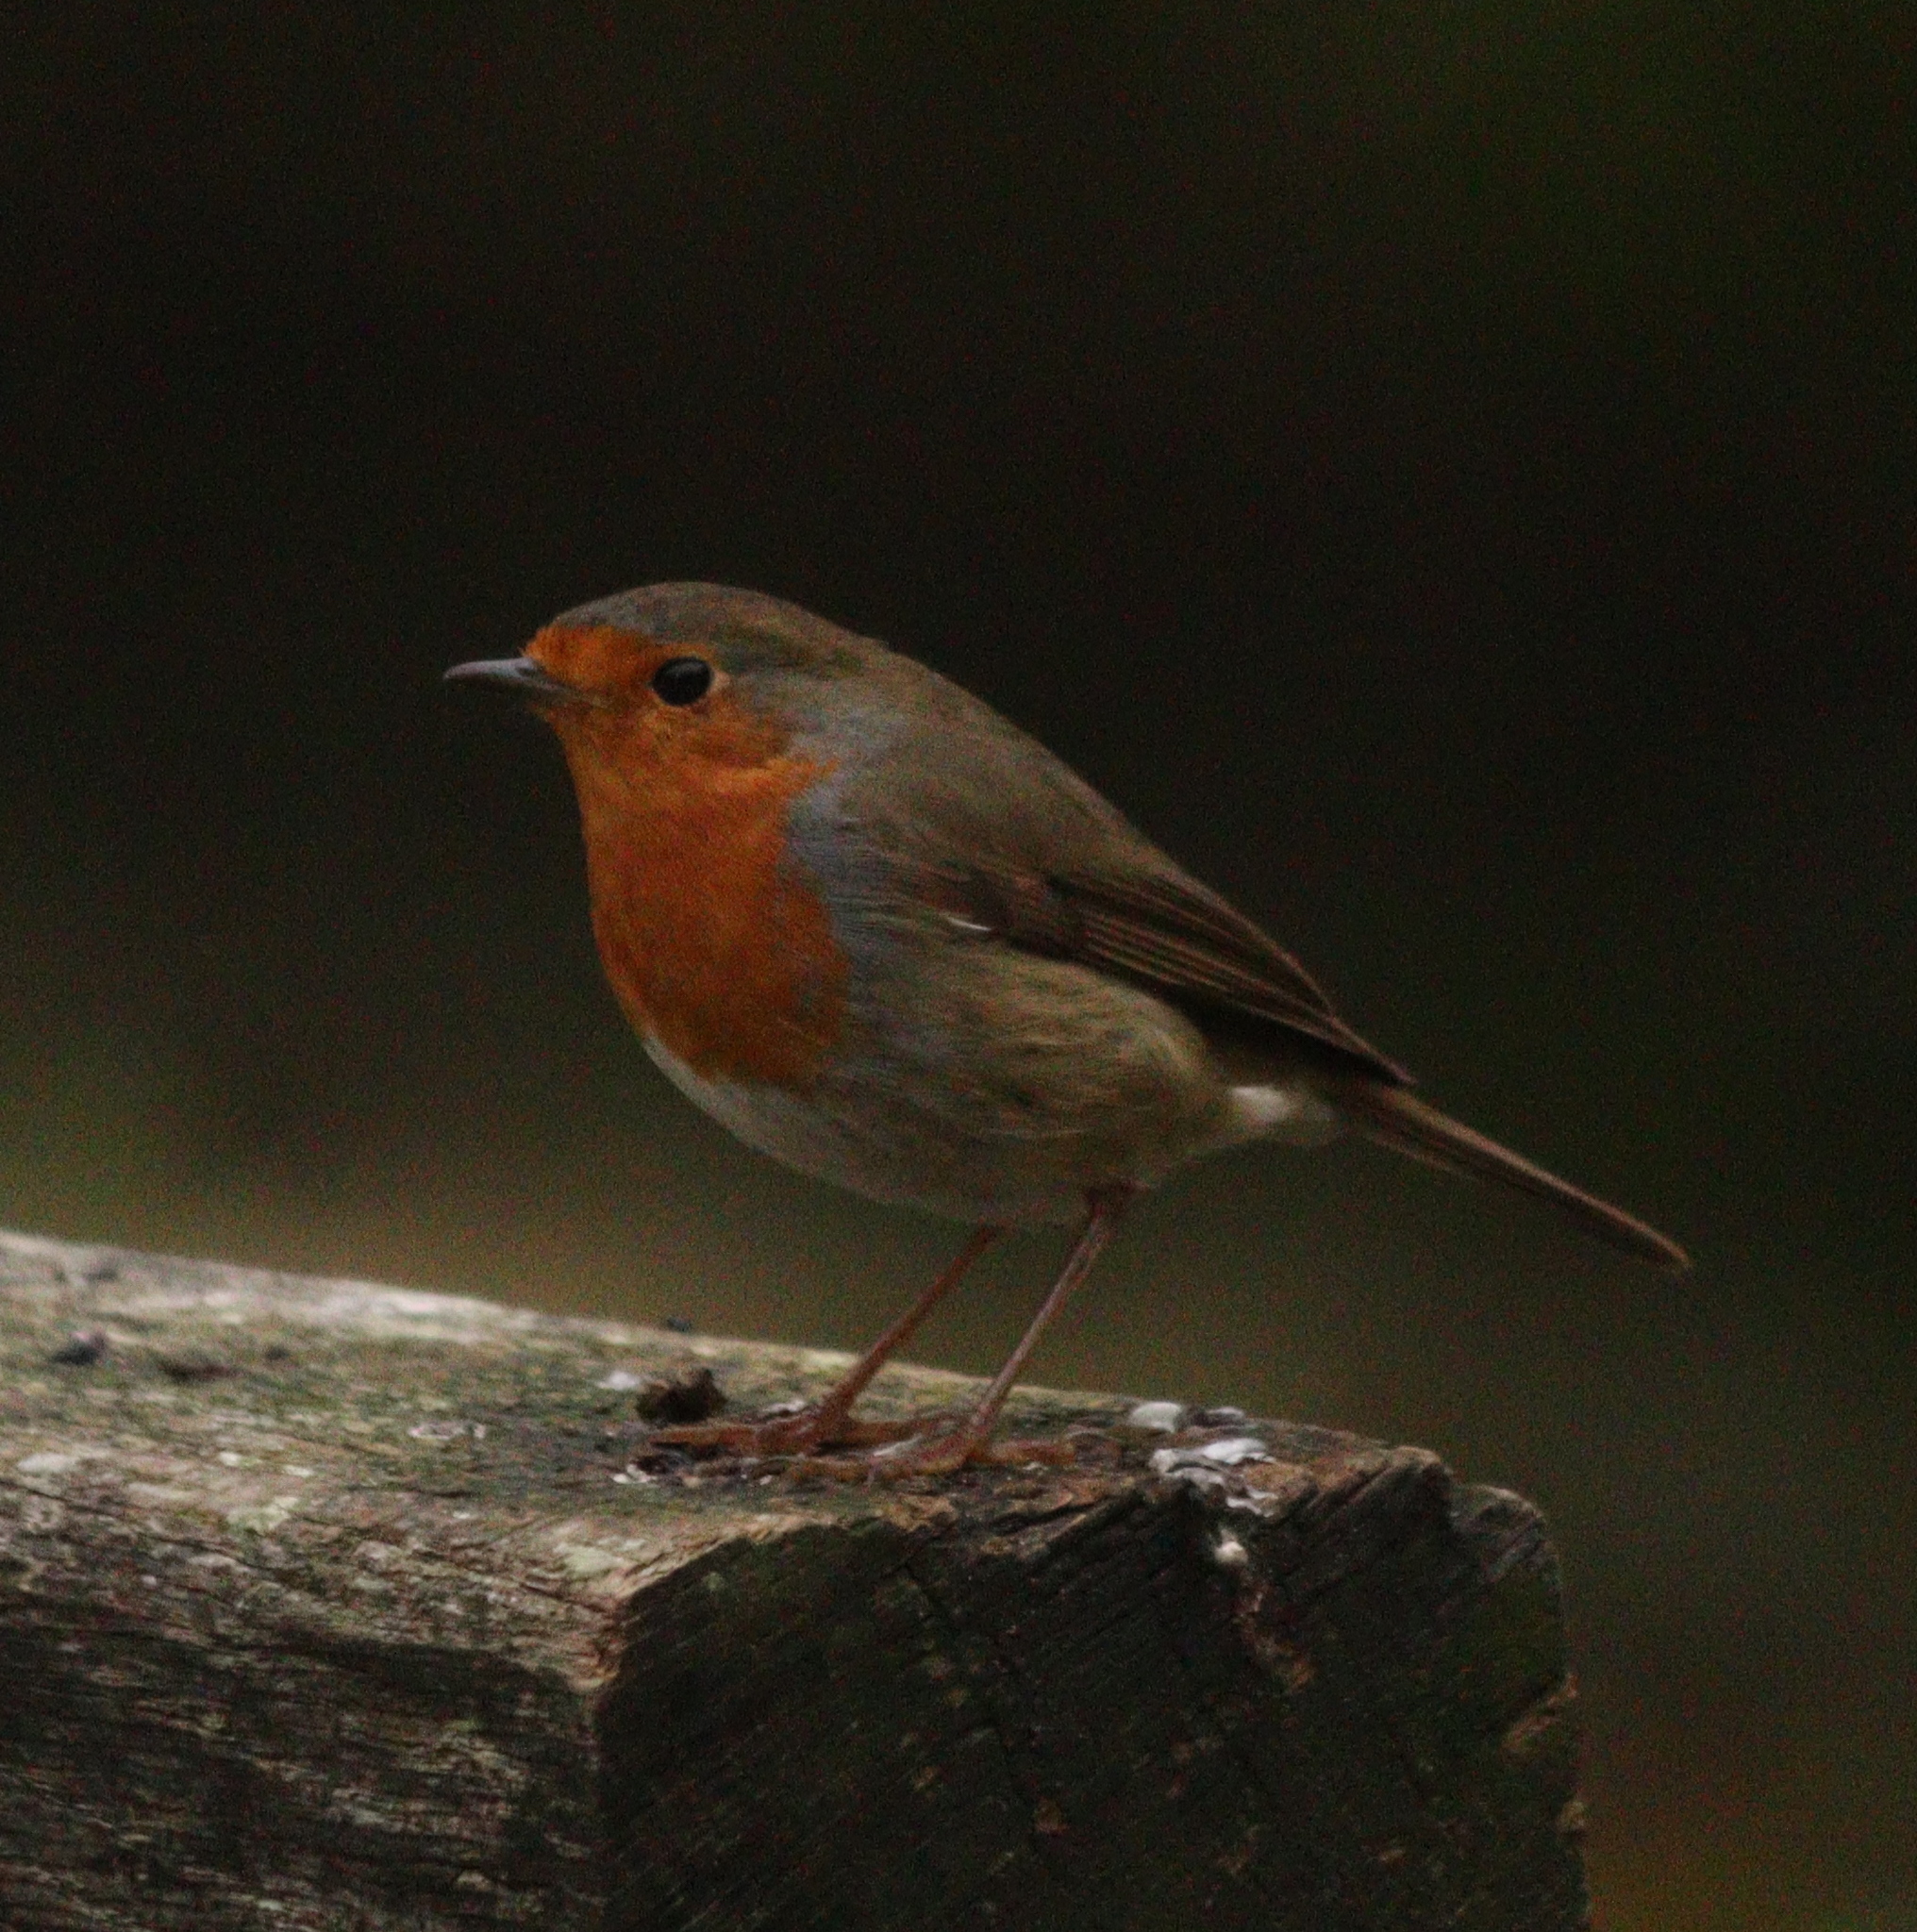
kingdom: Animalia
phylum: Chordata
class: Aves
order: Passeriformes
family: Muscicapidae
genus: Erithacus
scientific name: Erithacus rubecula
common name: European robin
